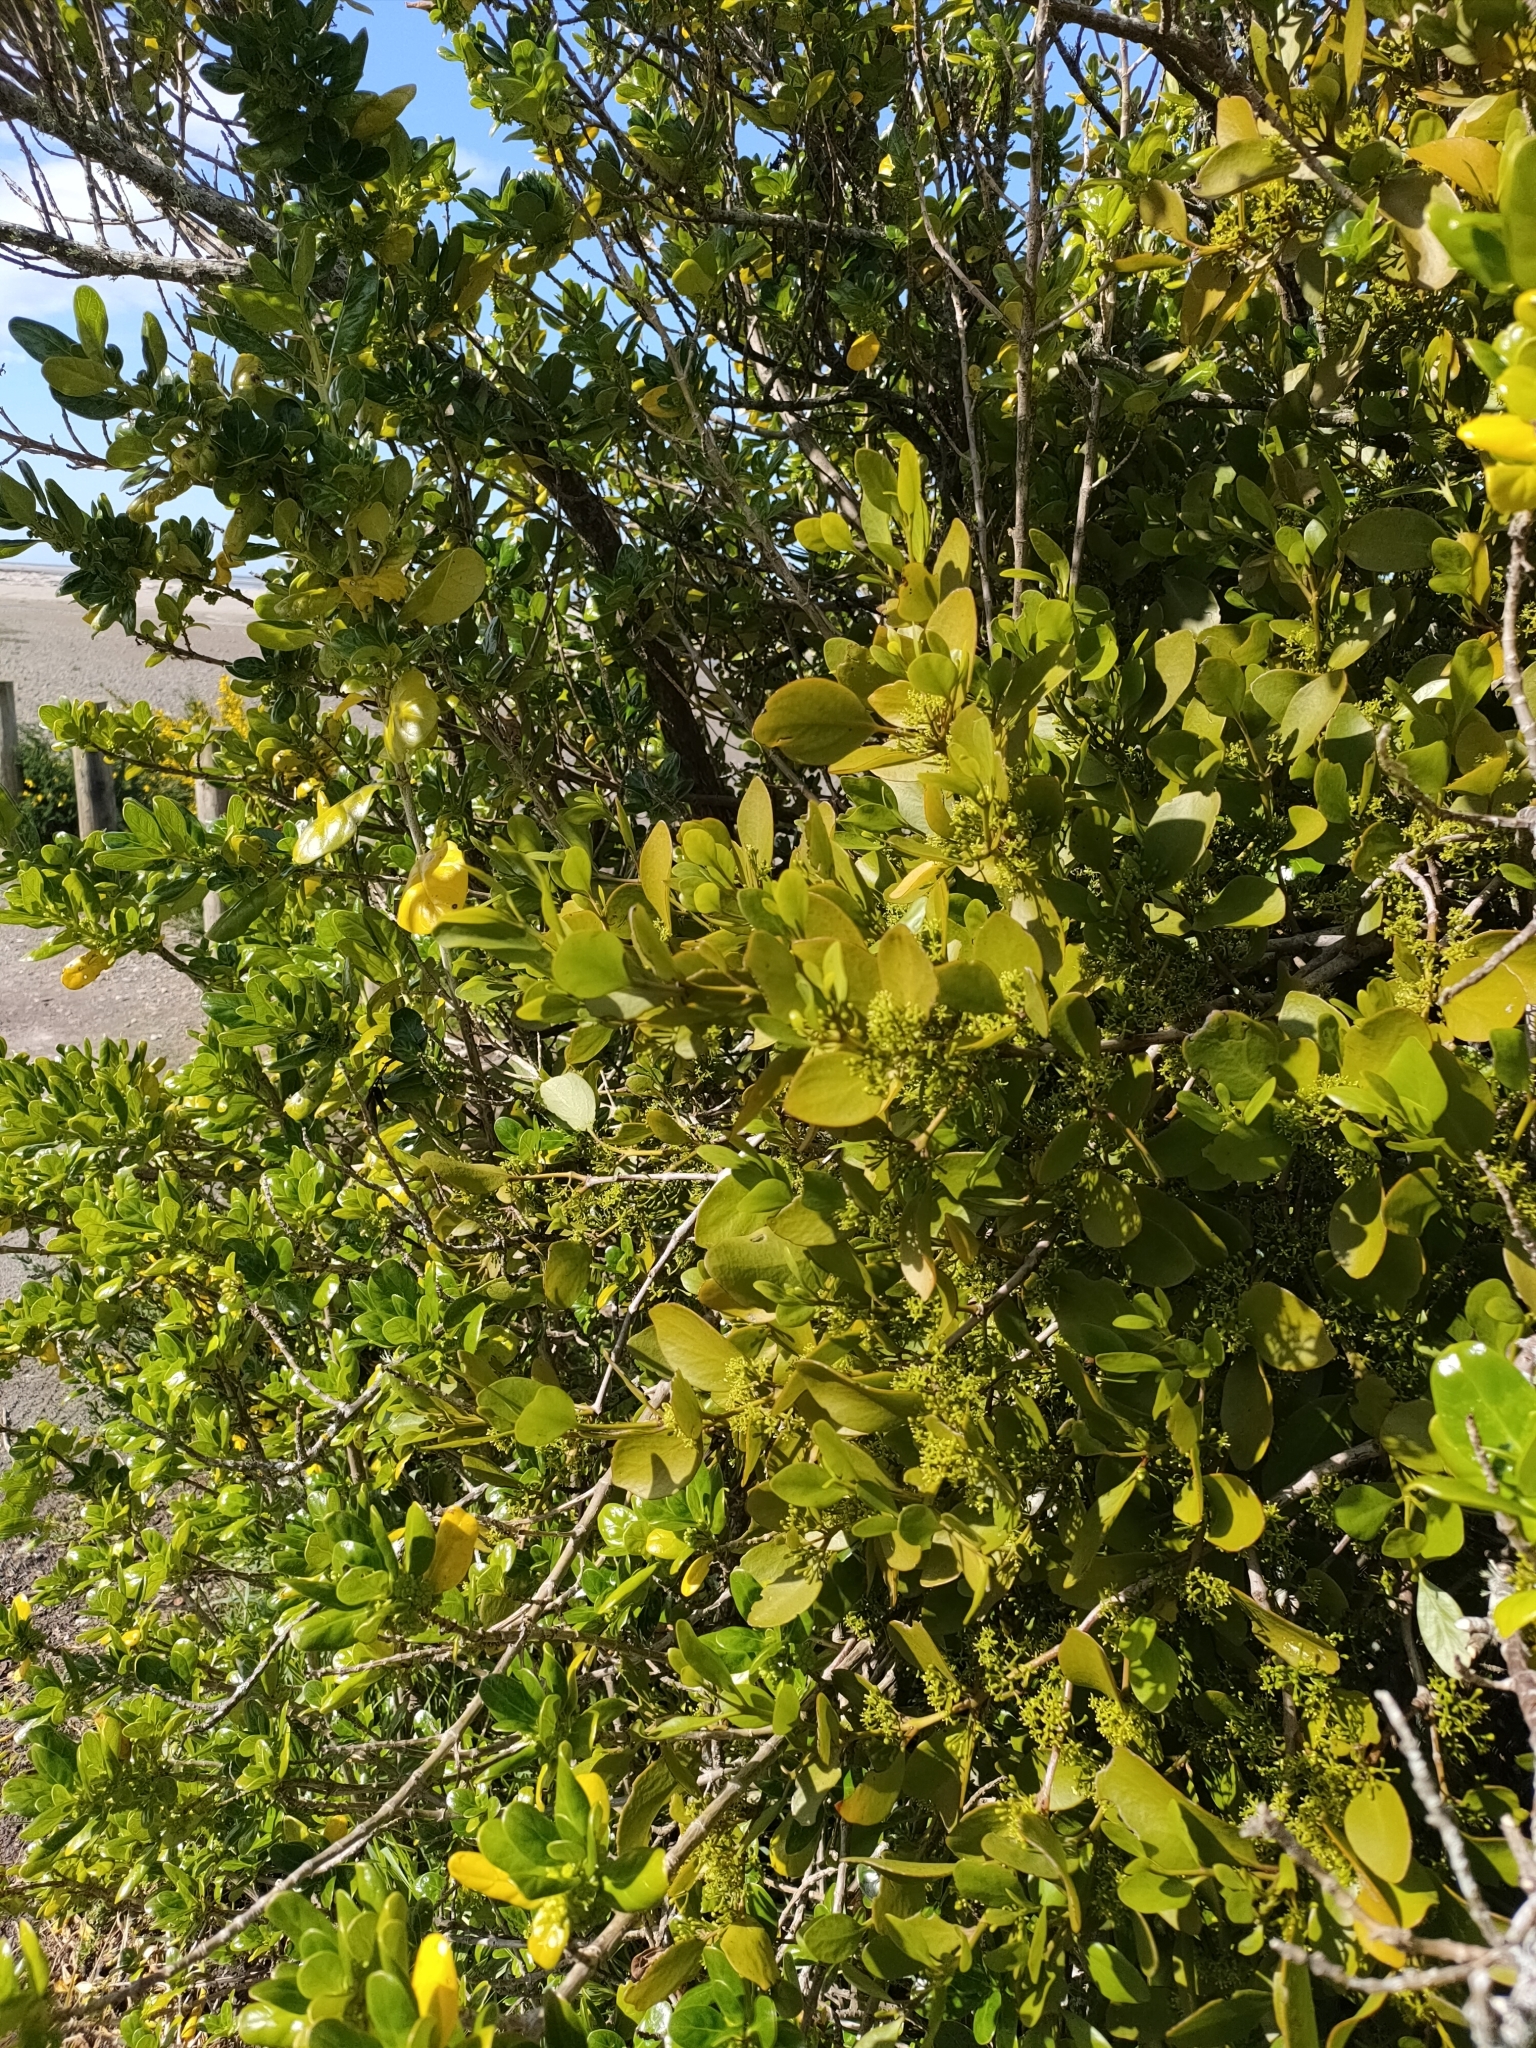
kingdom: Plantae
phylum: Tracheophyta
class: Magnoliopsida
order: Santalales
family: Loranthaceae
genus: Ileostylus
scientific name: Ileostylus micranthus
